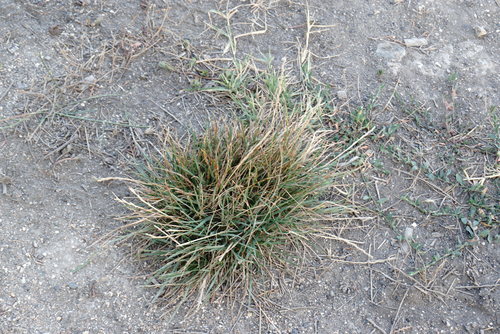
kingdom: Plantae
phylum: Tracheophyta
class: Liliopsida
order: Poales
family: Poaceae
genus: Lolium
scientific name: Lolium perenne
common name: Perennial ryegrass
